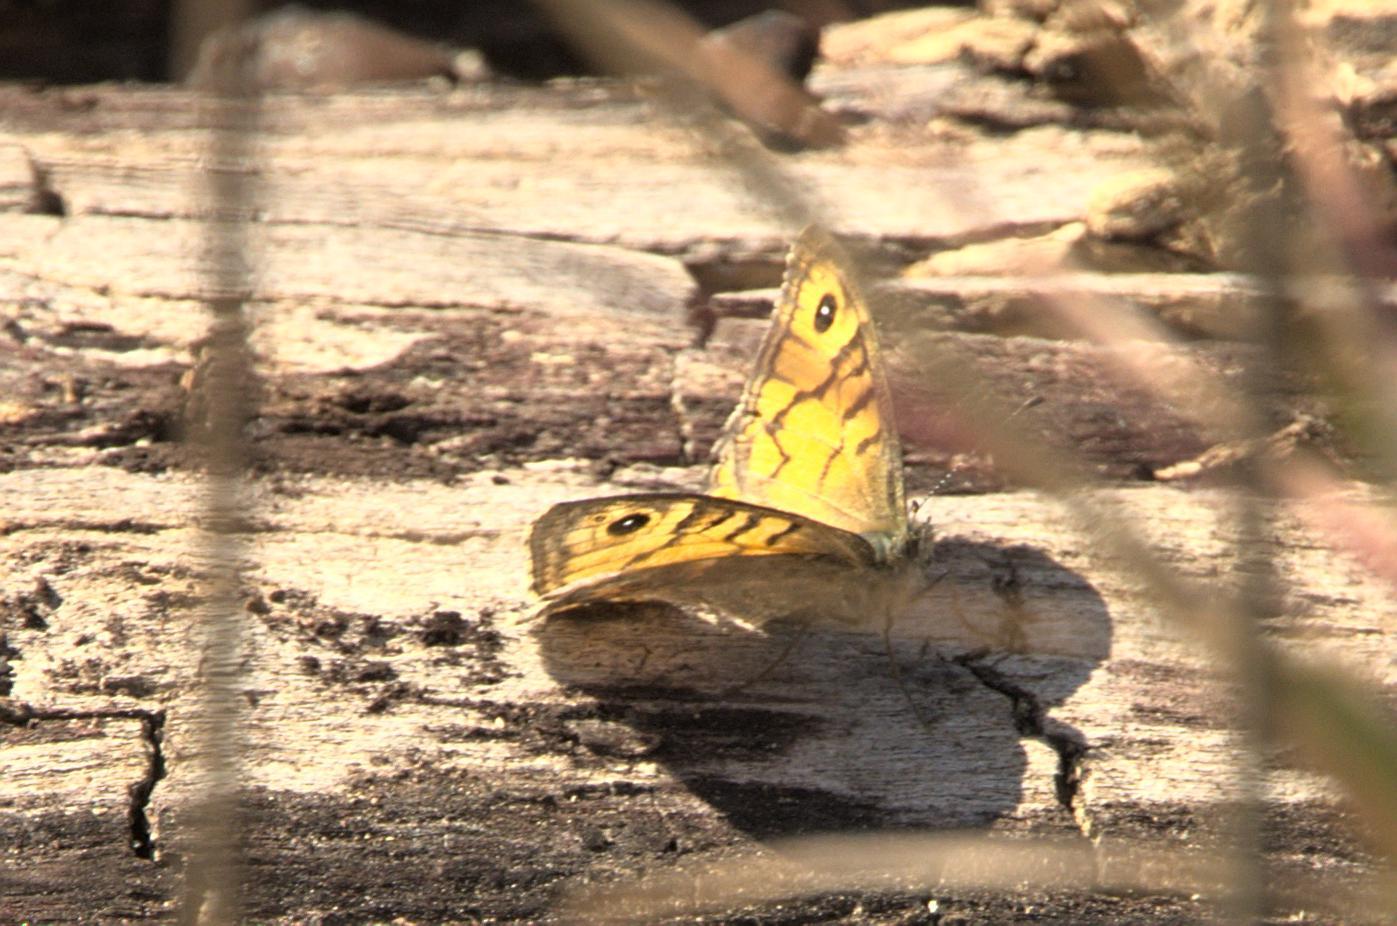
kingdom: Animalia
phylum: Arthropoda
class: Insecta
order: Lepidoptera
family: Nymphalidae
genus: Pararge
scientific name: Pararge Lasiommata megera
